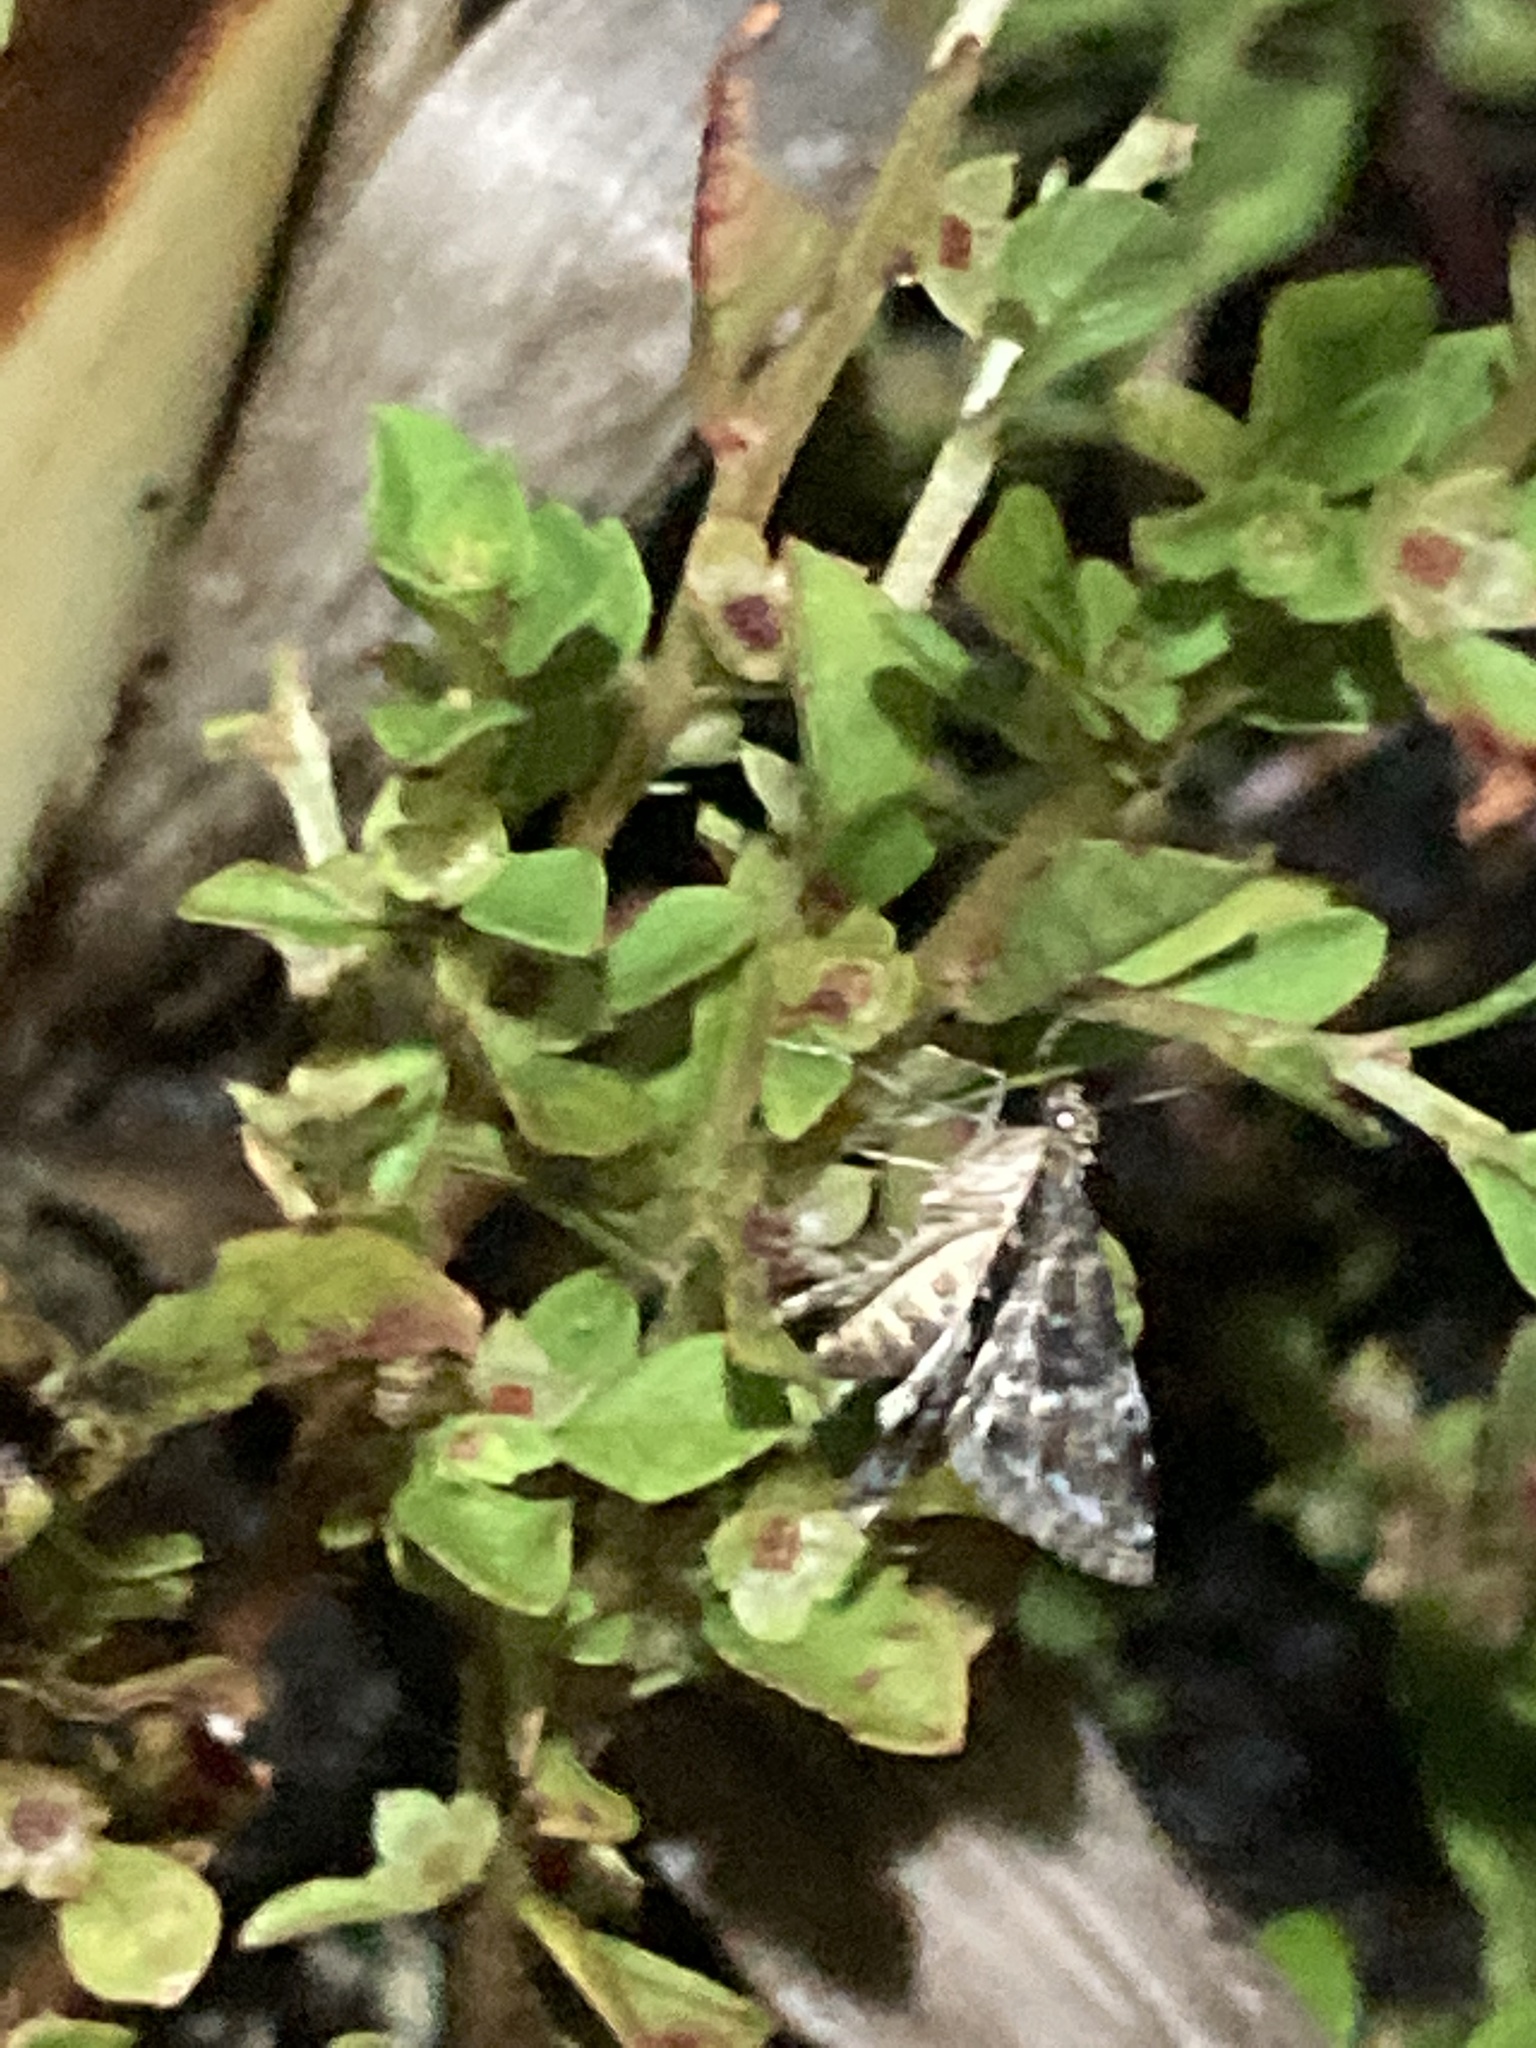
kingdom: Animalia
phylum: Arthropoda
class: Insecta
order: Lepidoptera
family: Crambidae
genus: Elophila
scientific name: Elophila obliteralis
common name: Waterlily leafcutter moth
